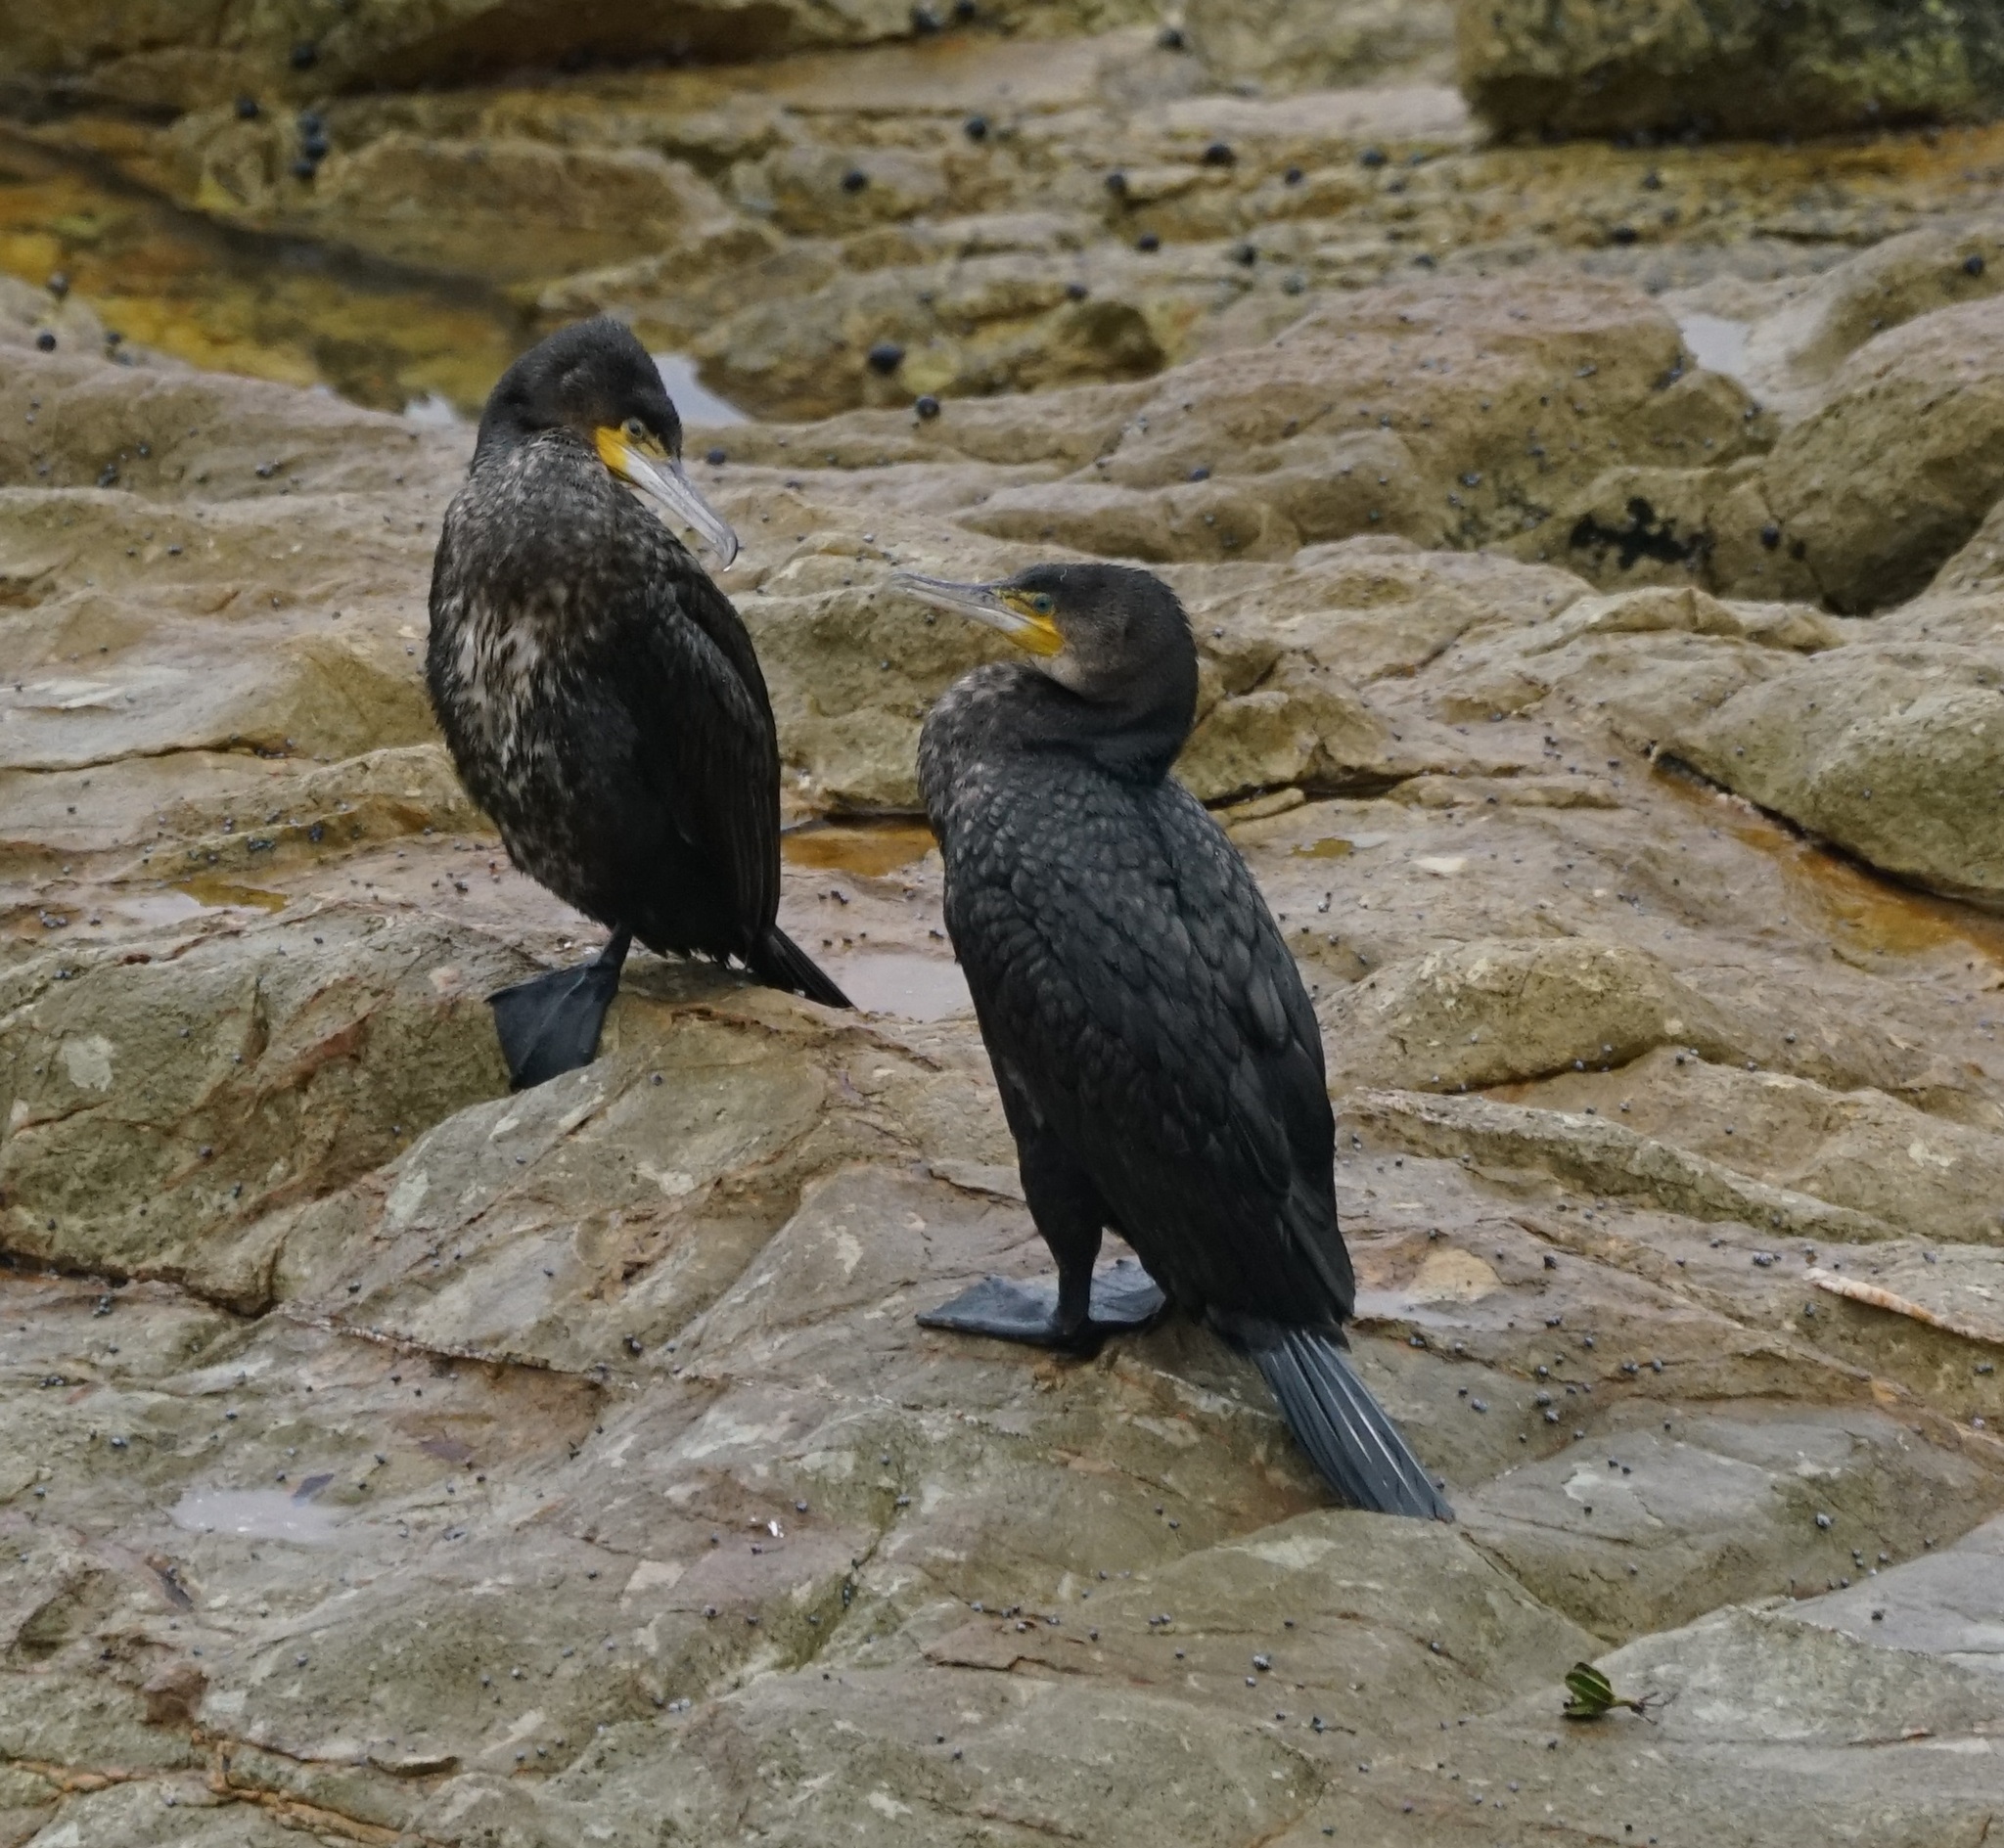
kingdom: Animalia
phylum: Chordata
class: Aves
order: Suliformes
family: Phalacrocoracidae
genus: Phalacrocorax
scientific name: Phalacrocorax carbo
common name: Great cormorant
